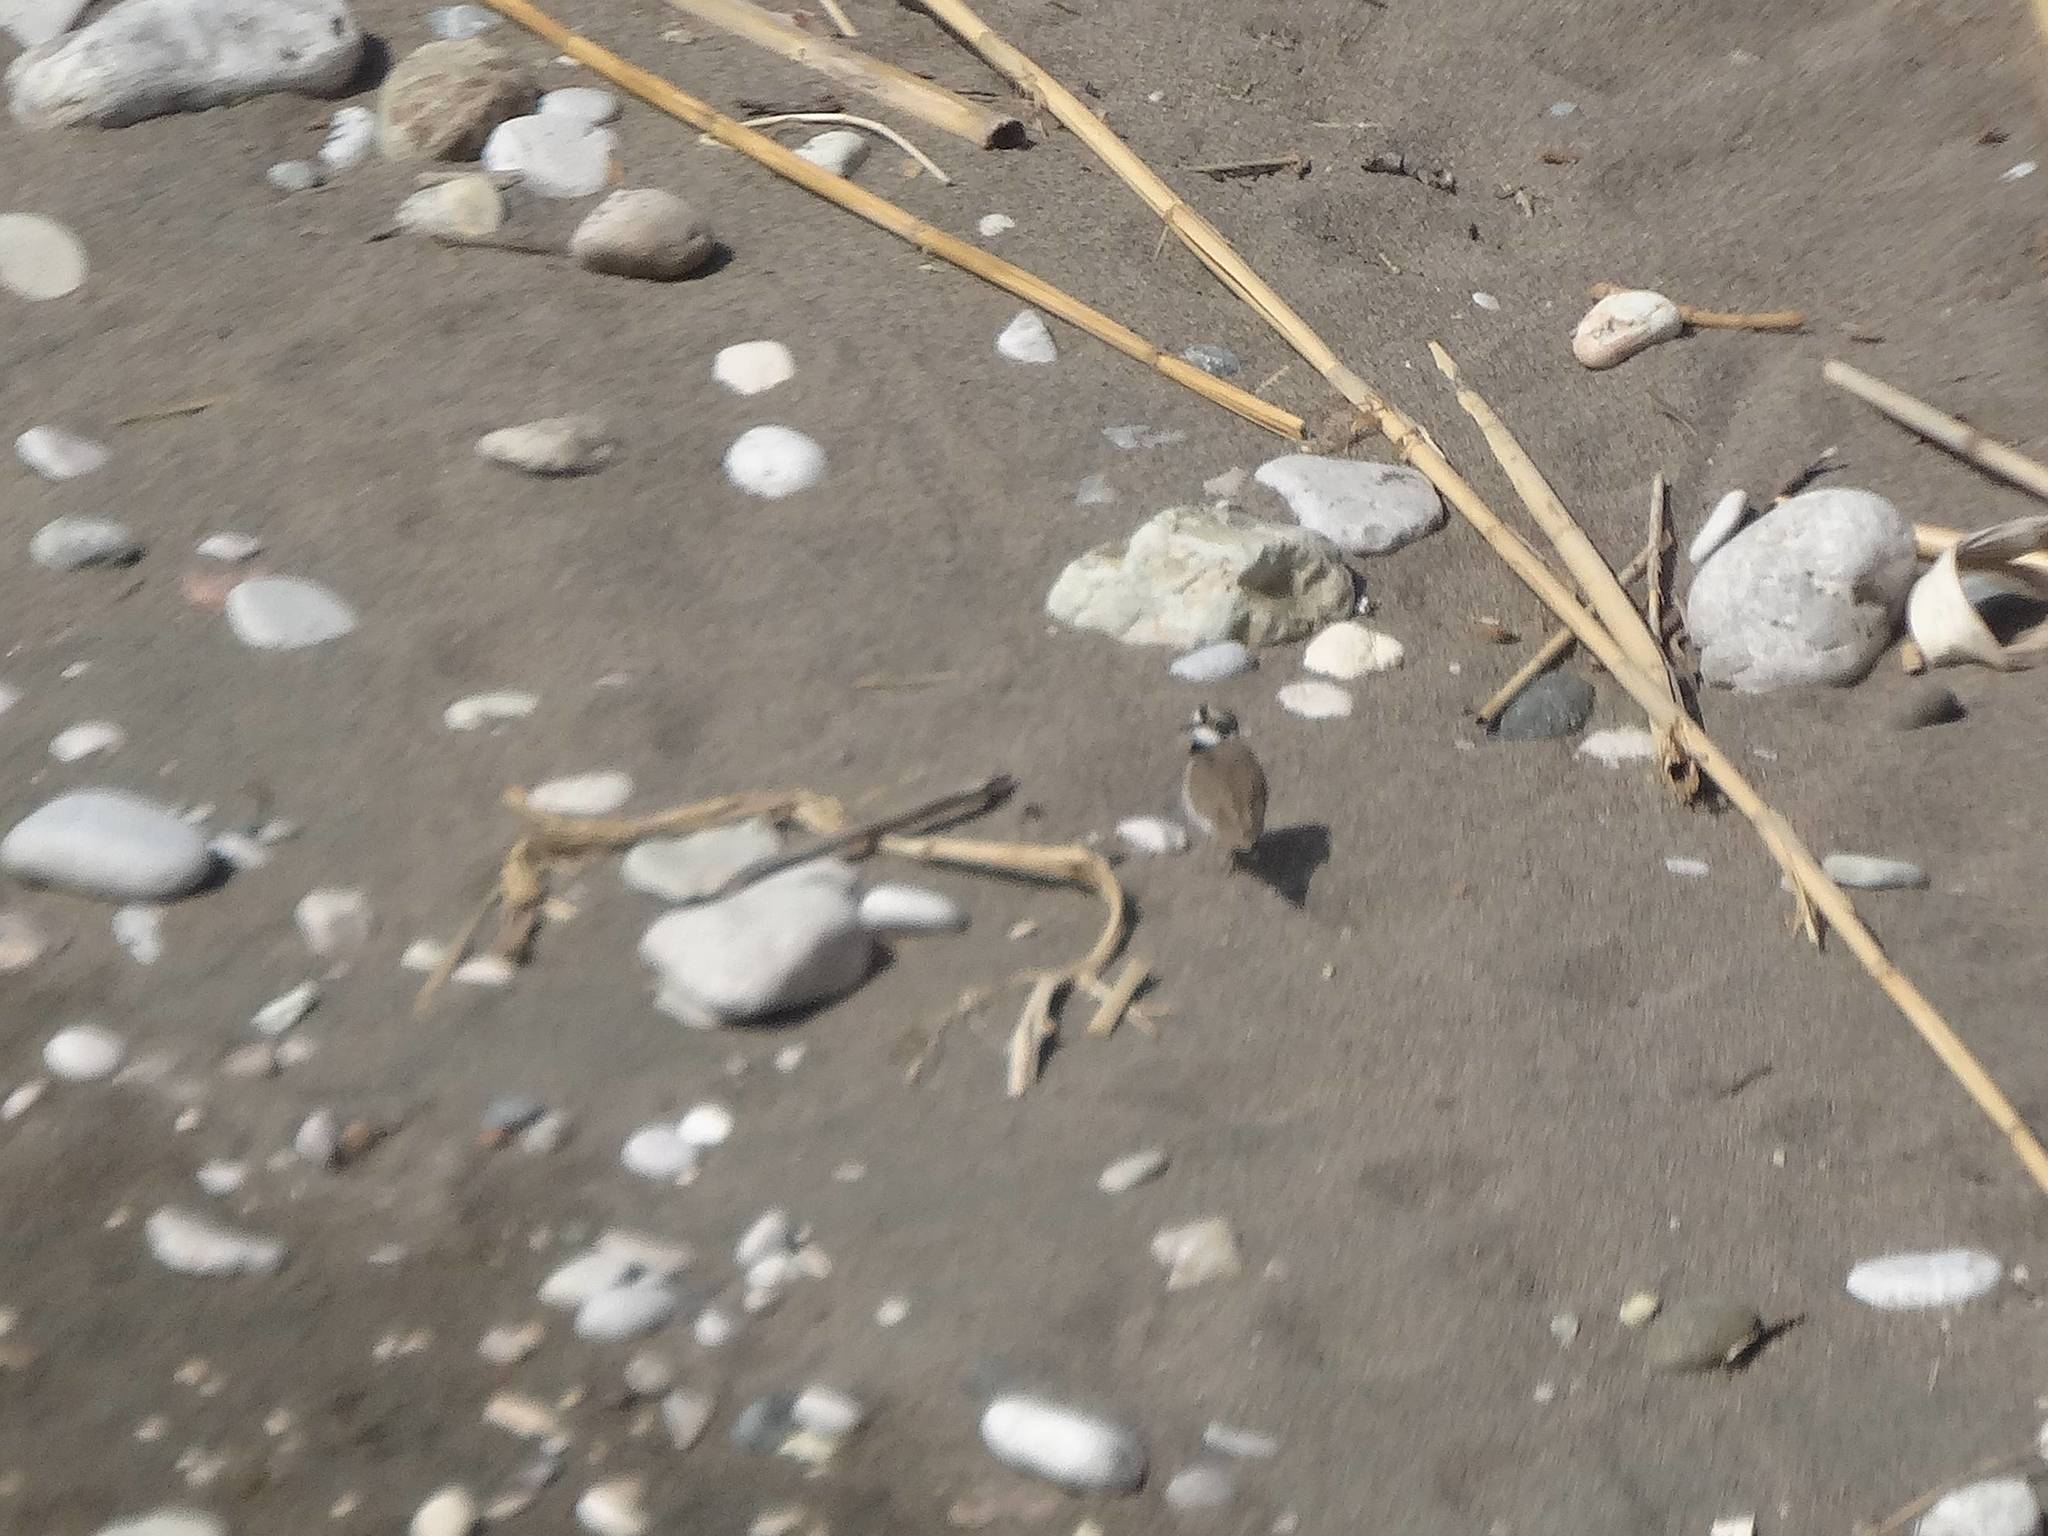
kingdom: Animalia
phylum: Chordata
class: Aves
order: Charadriiformes
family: Charadriidae
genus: Charadrius
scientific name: Charadrius dubius
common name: Little ringed plover
